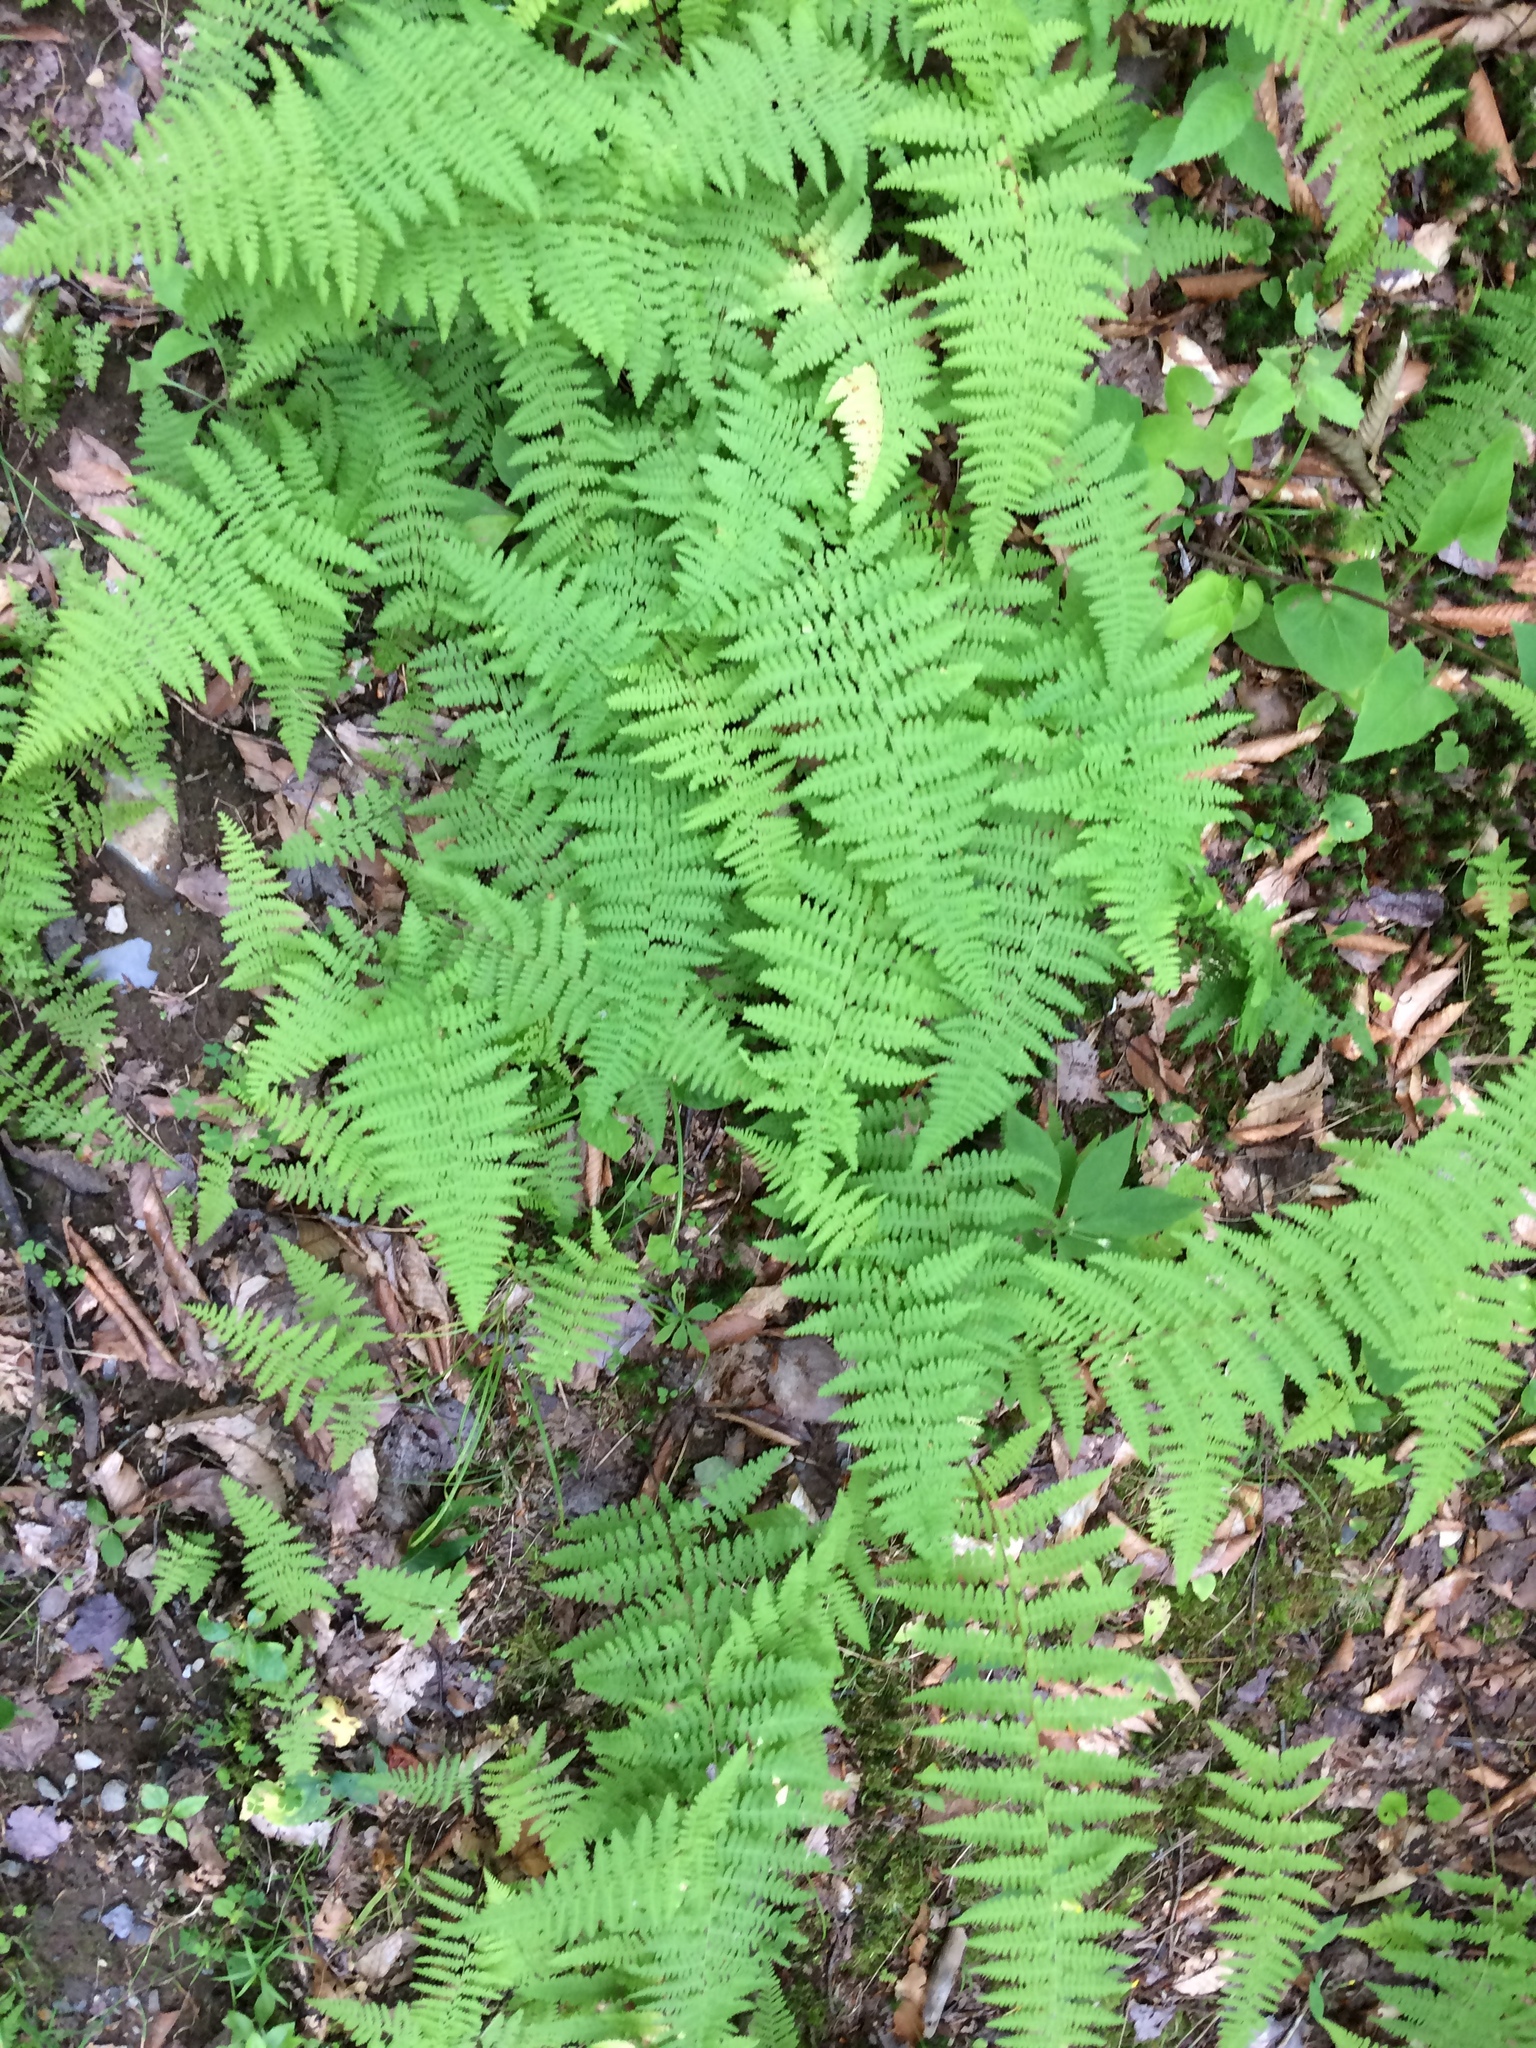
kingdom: Plantae
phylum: Tracheophyta
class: Polypodiopsida
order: Polypodiales
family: Dennstaedtiaceae
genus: Sitobolium
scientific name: Sitobolium punctilobum
